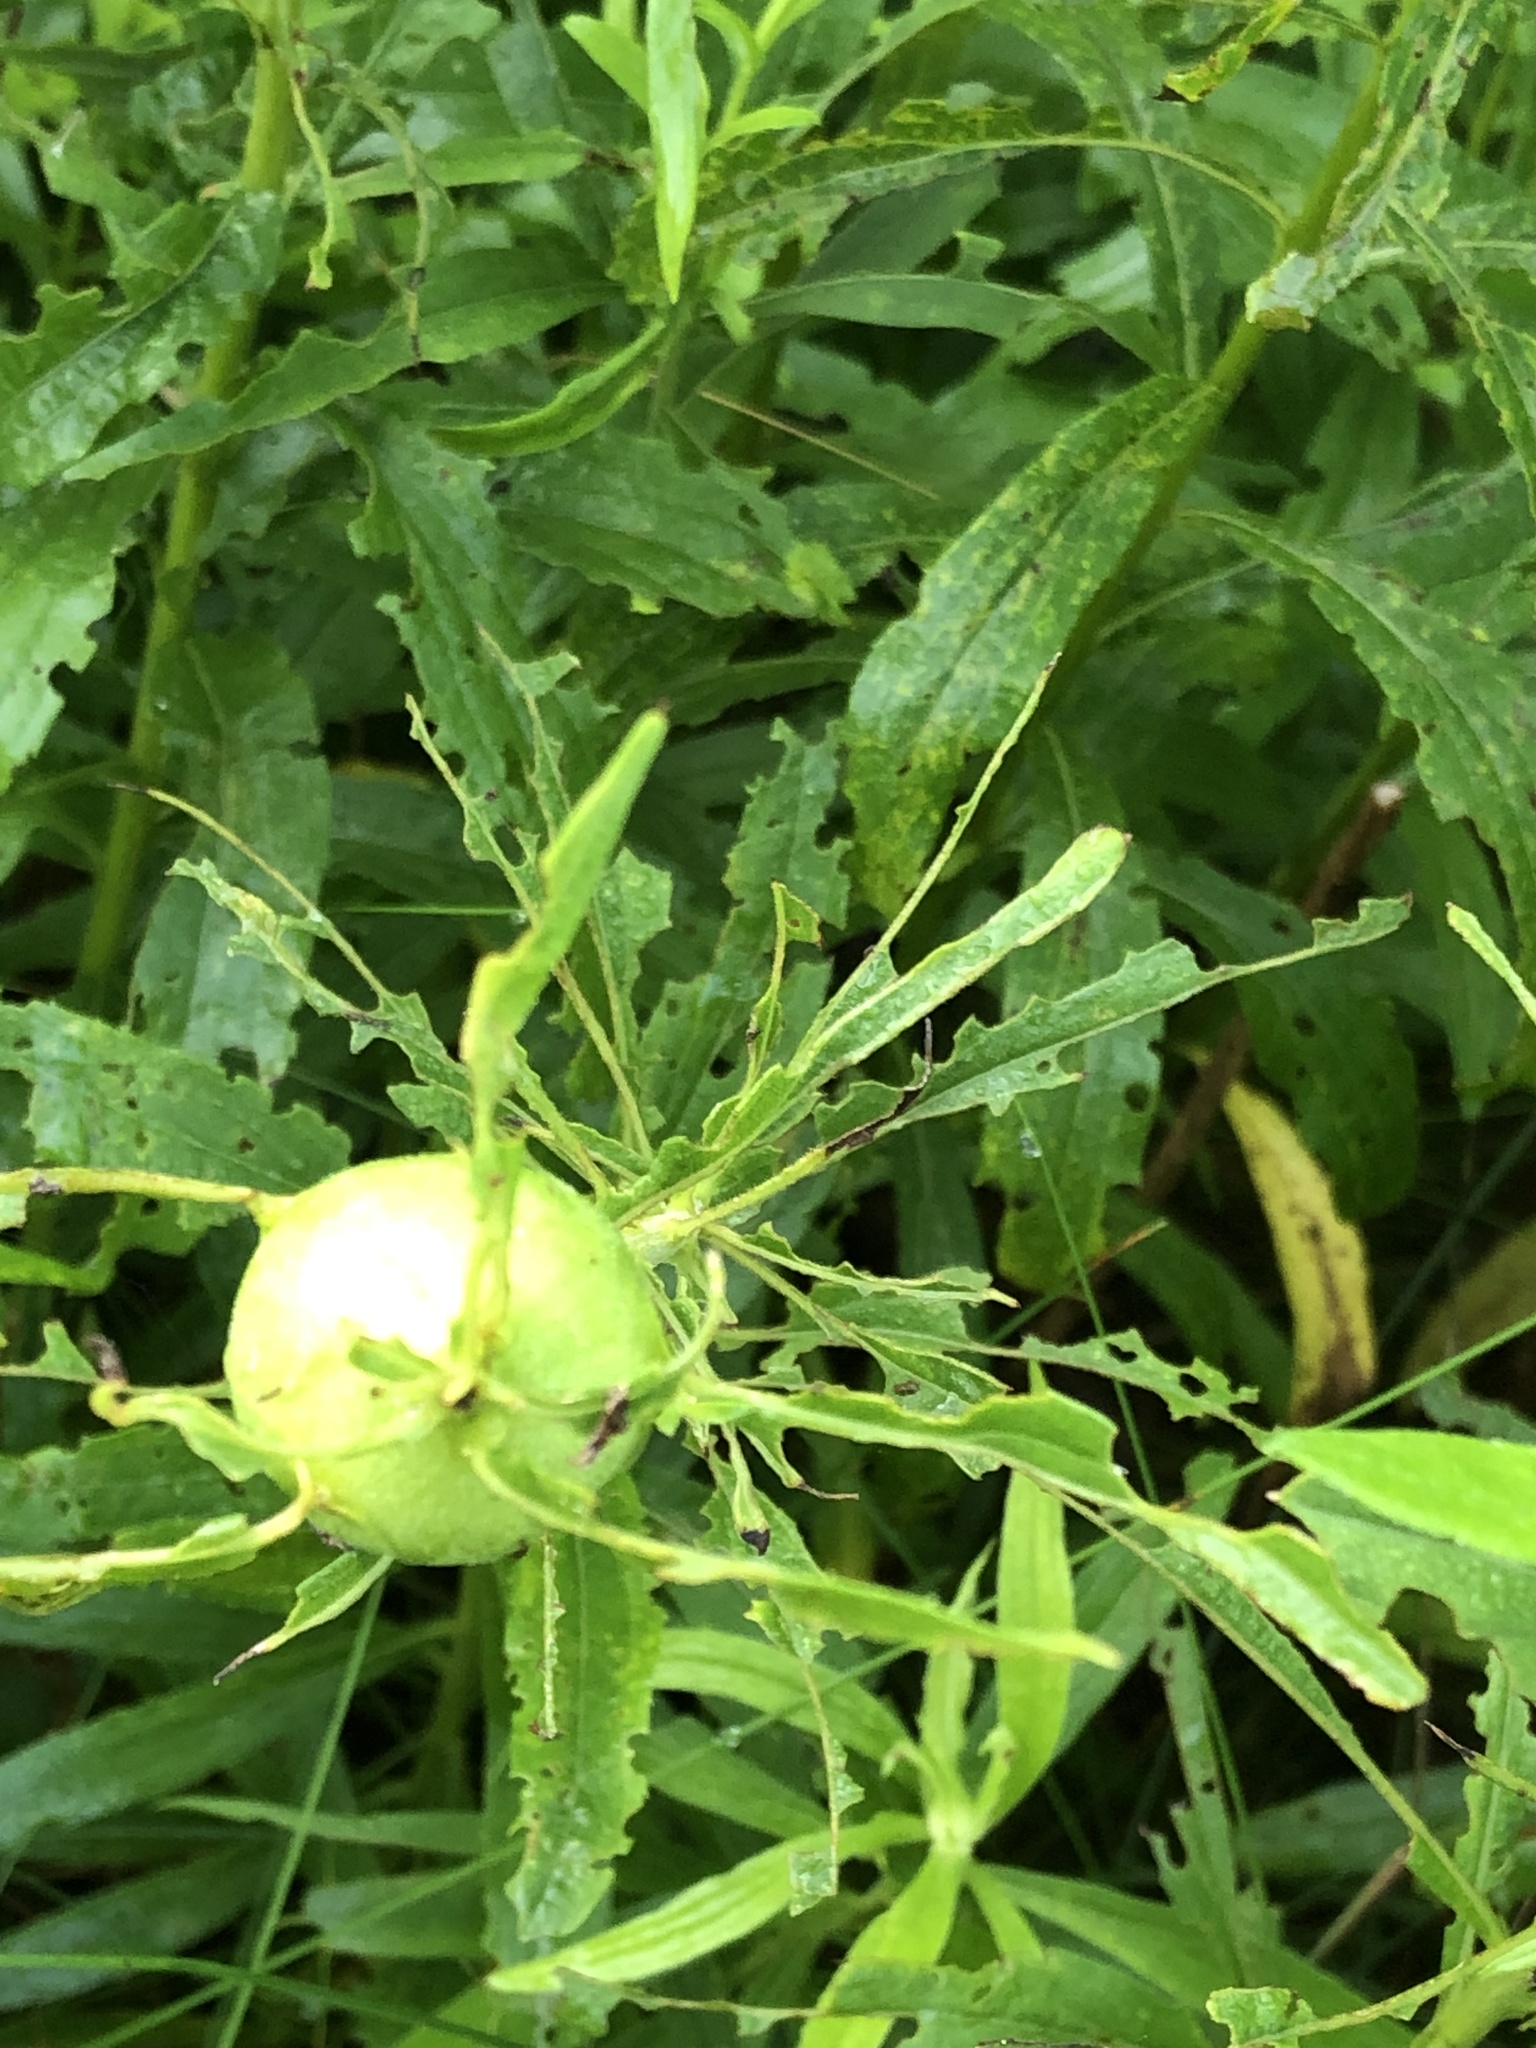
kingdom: Animalia
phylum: Arthropoda
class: Insecta
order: Diptera
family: Tephritidae
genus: Eurosta
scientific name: Eurosta solidaginis
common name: Goldenrod gall fly
